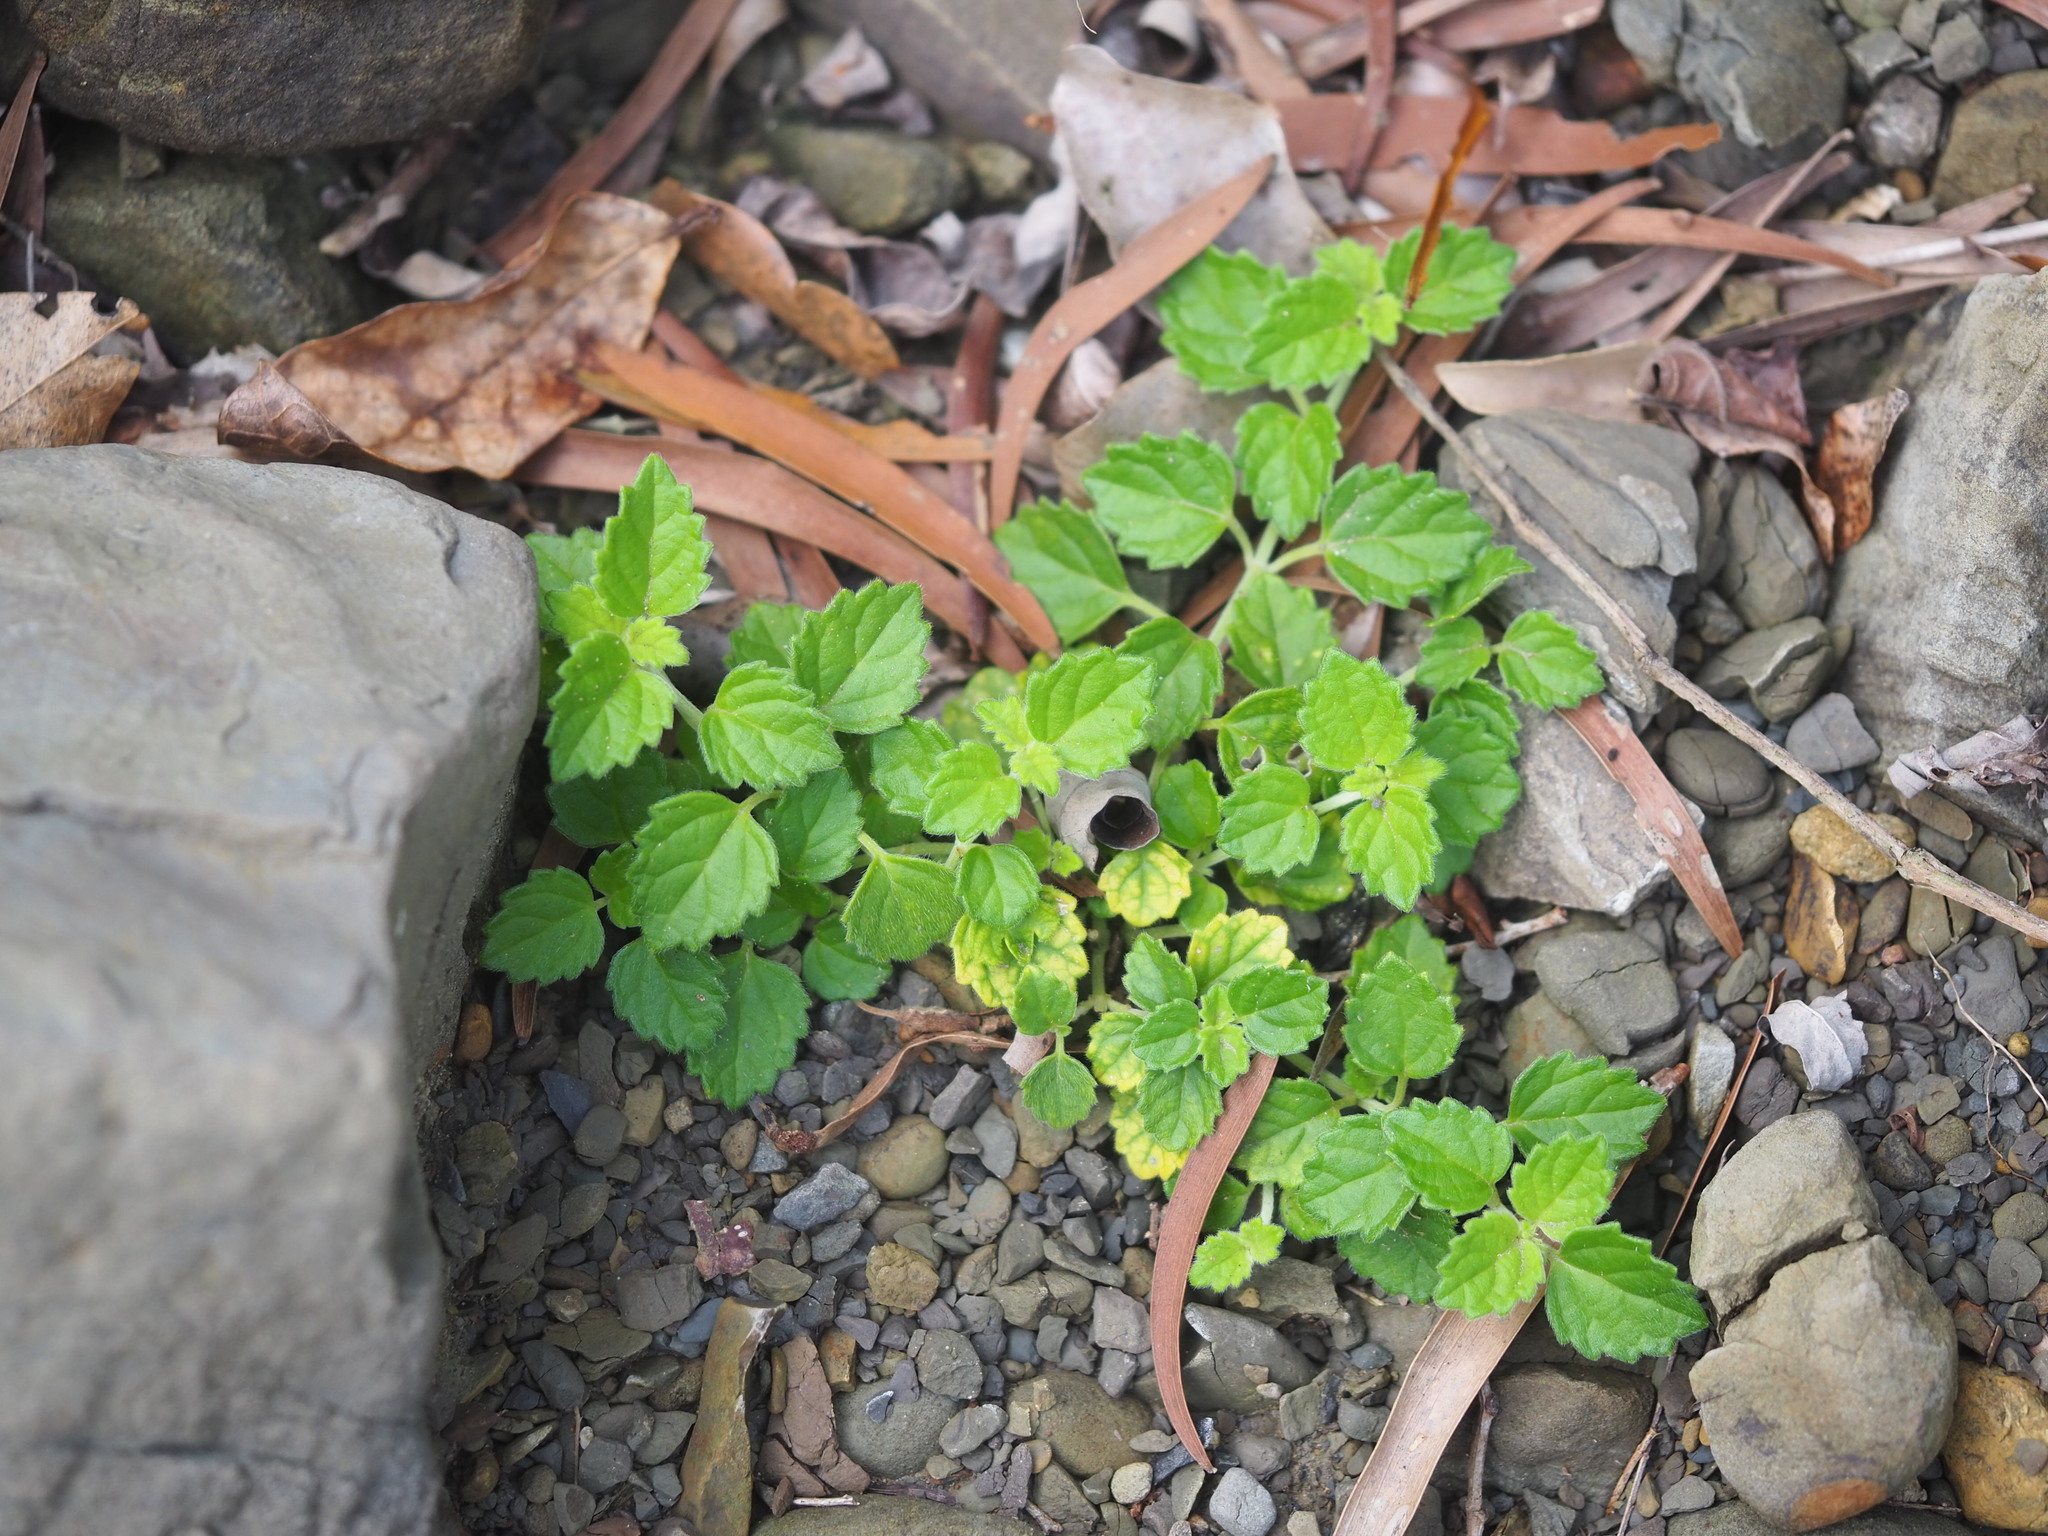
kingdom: Plantae
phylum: Tracheophyta
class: Magnoliopsida
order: Lamiales
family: Lamiaceae
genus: Leucas
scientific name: Leucas chinensis
